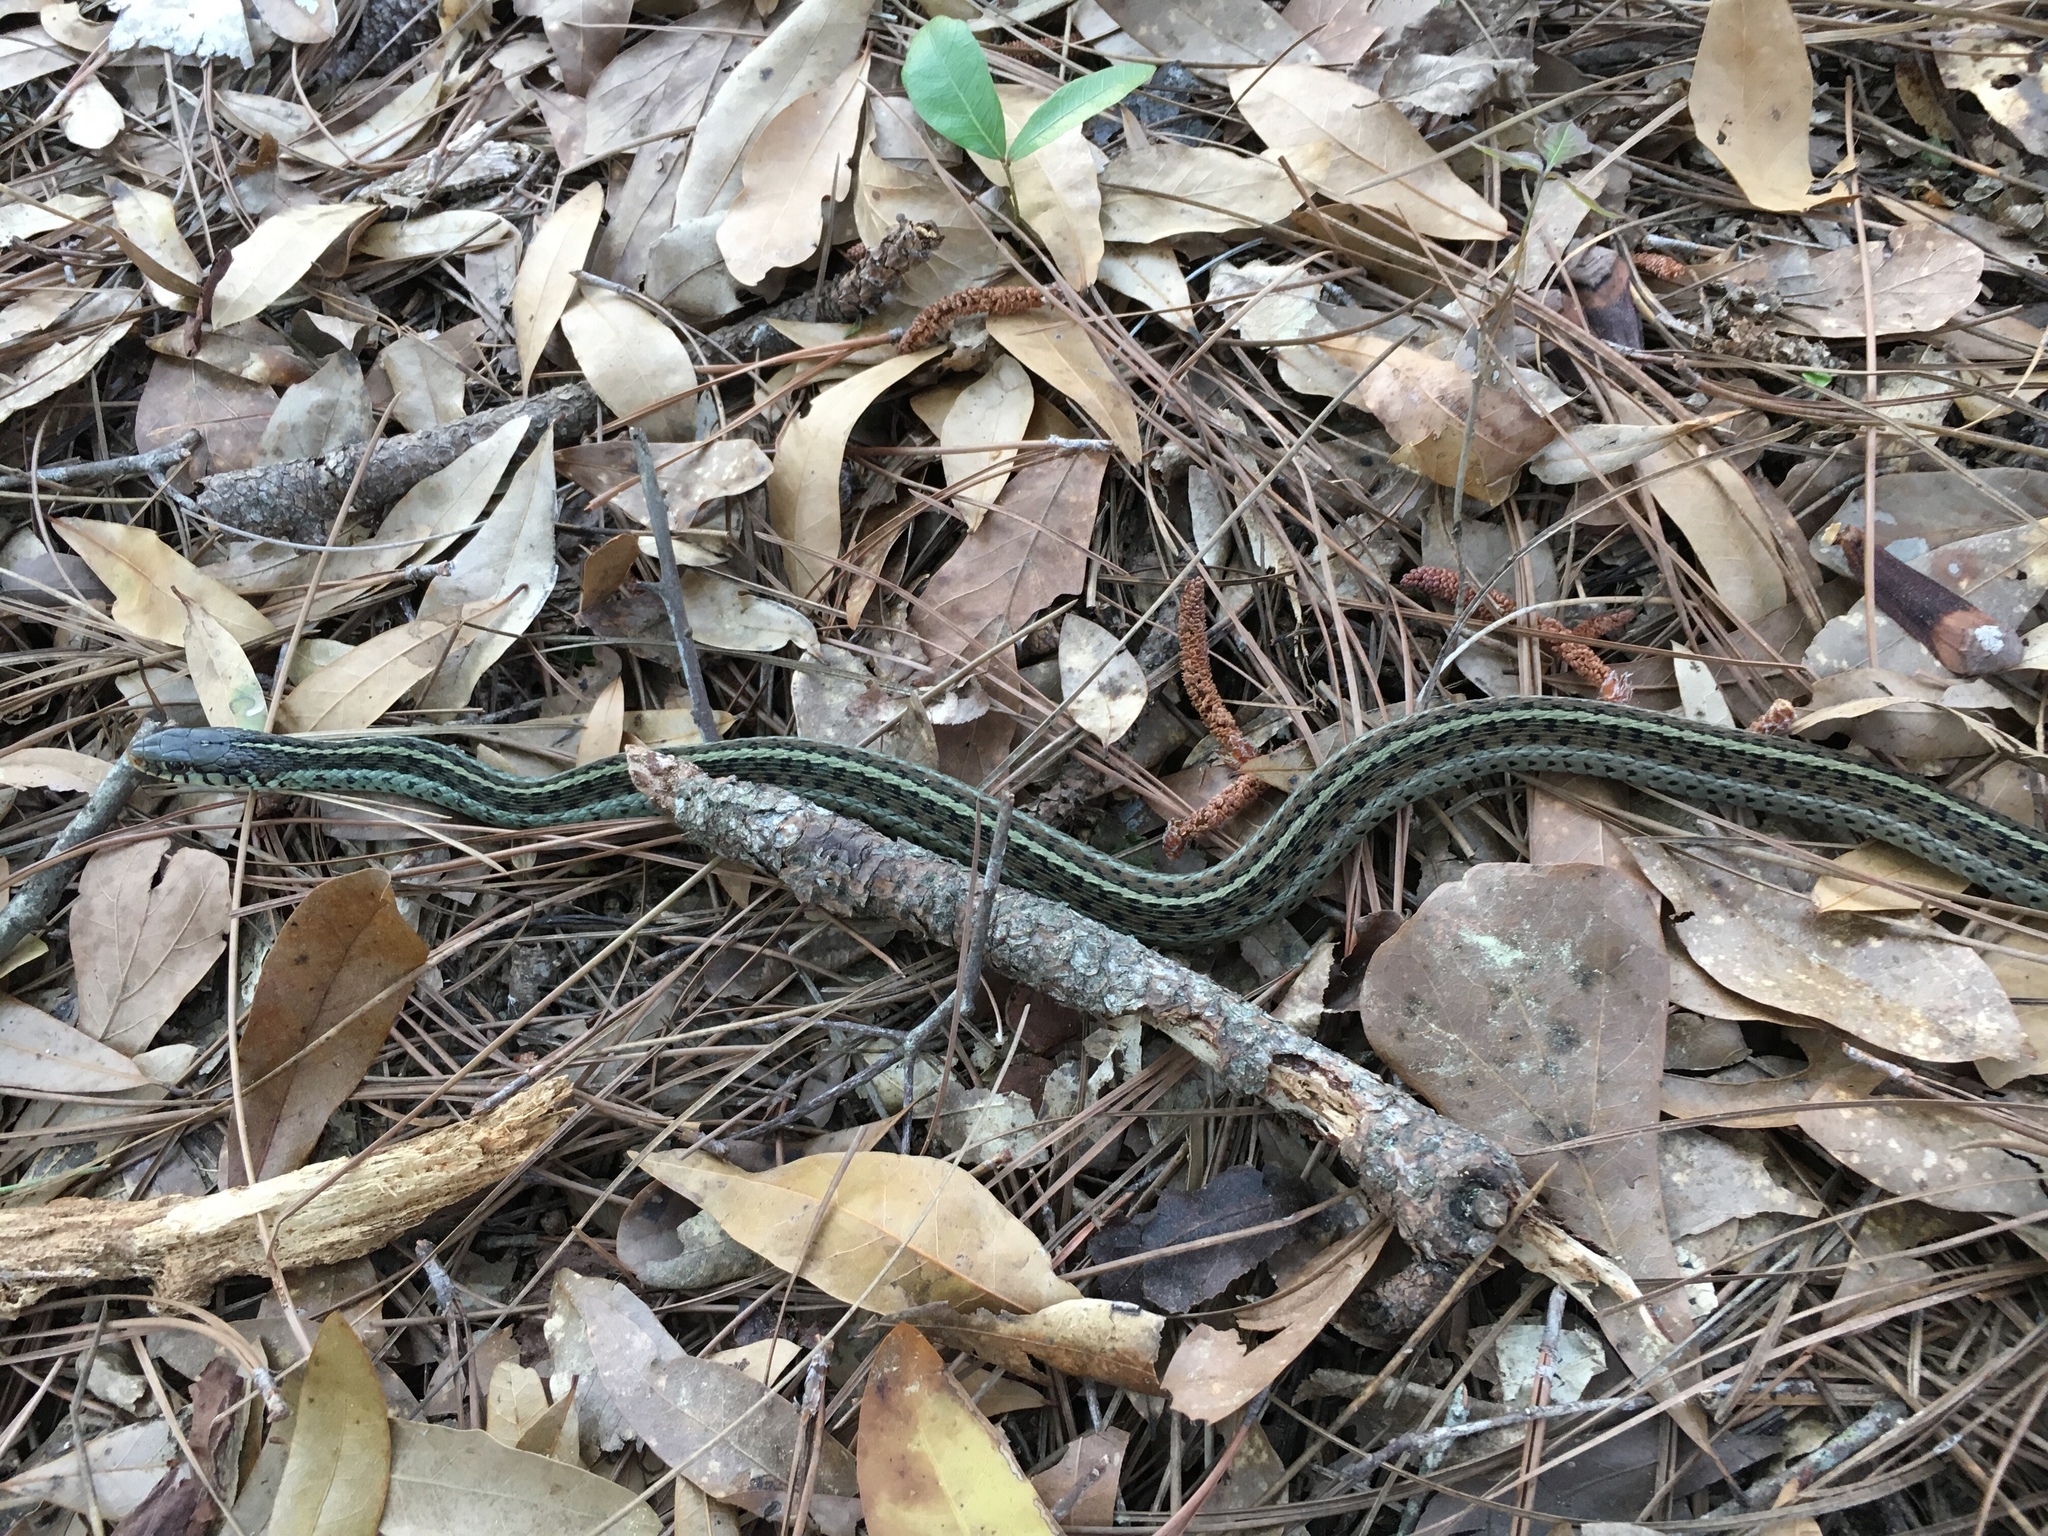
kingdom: Animalia
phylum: Chordata
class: Squamata
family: Colubridae
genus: Thamnophis
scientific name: Thamnophis sirtalis
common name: Common garter snake
